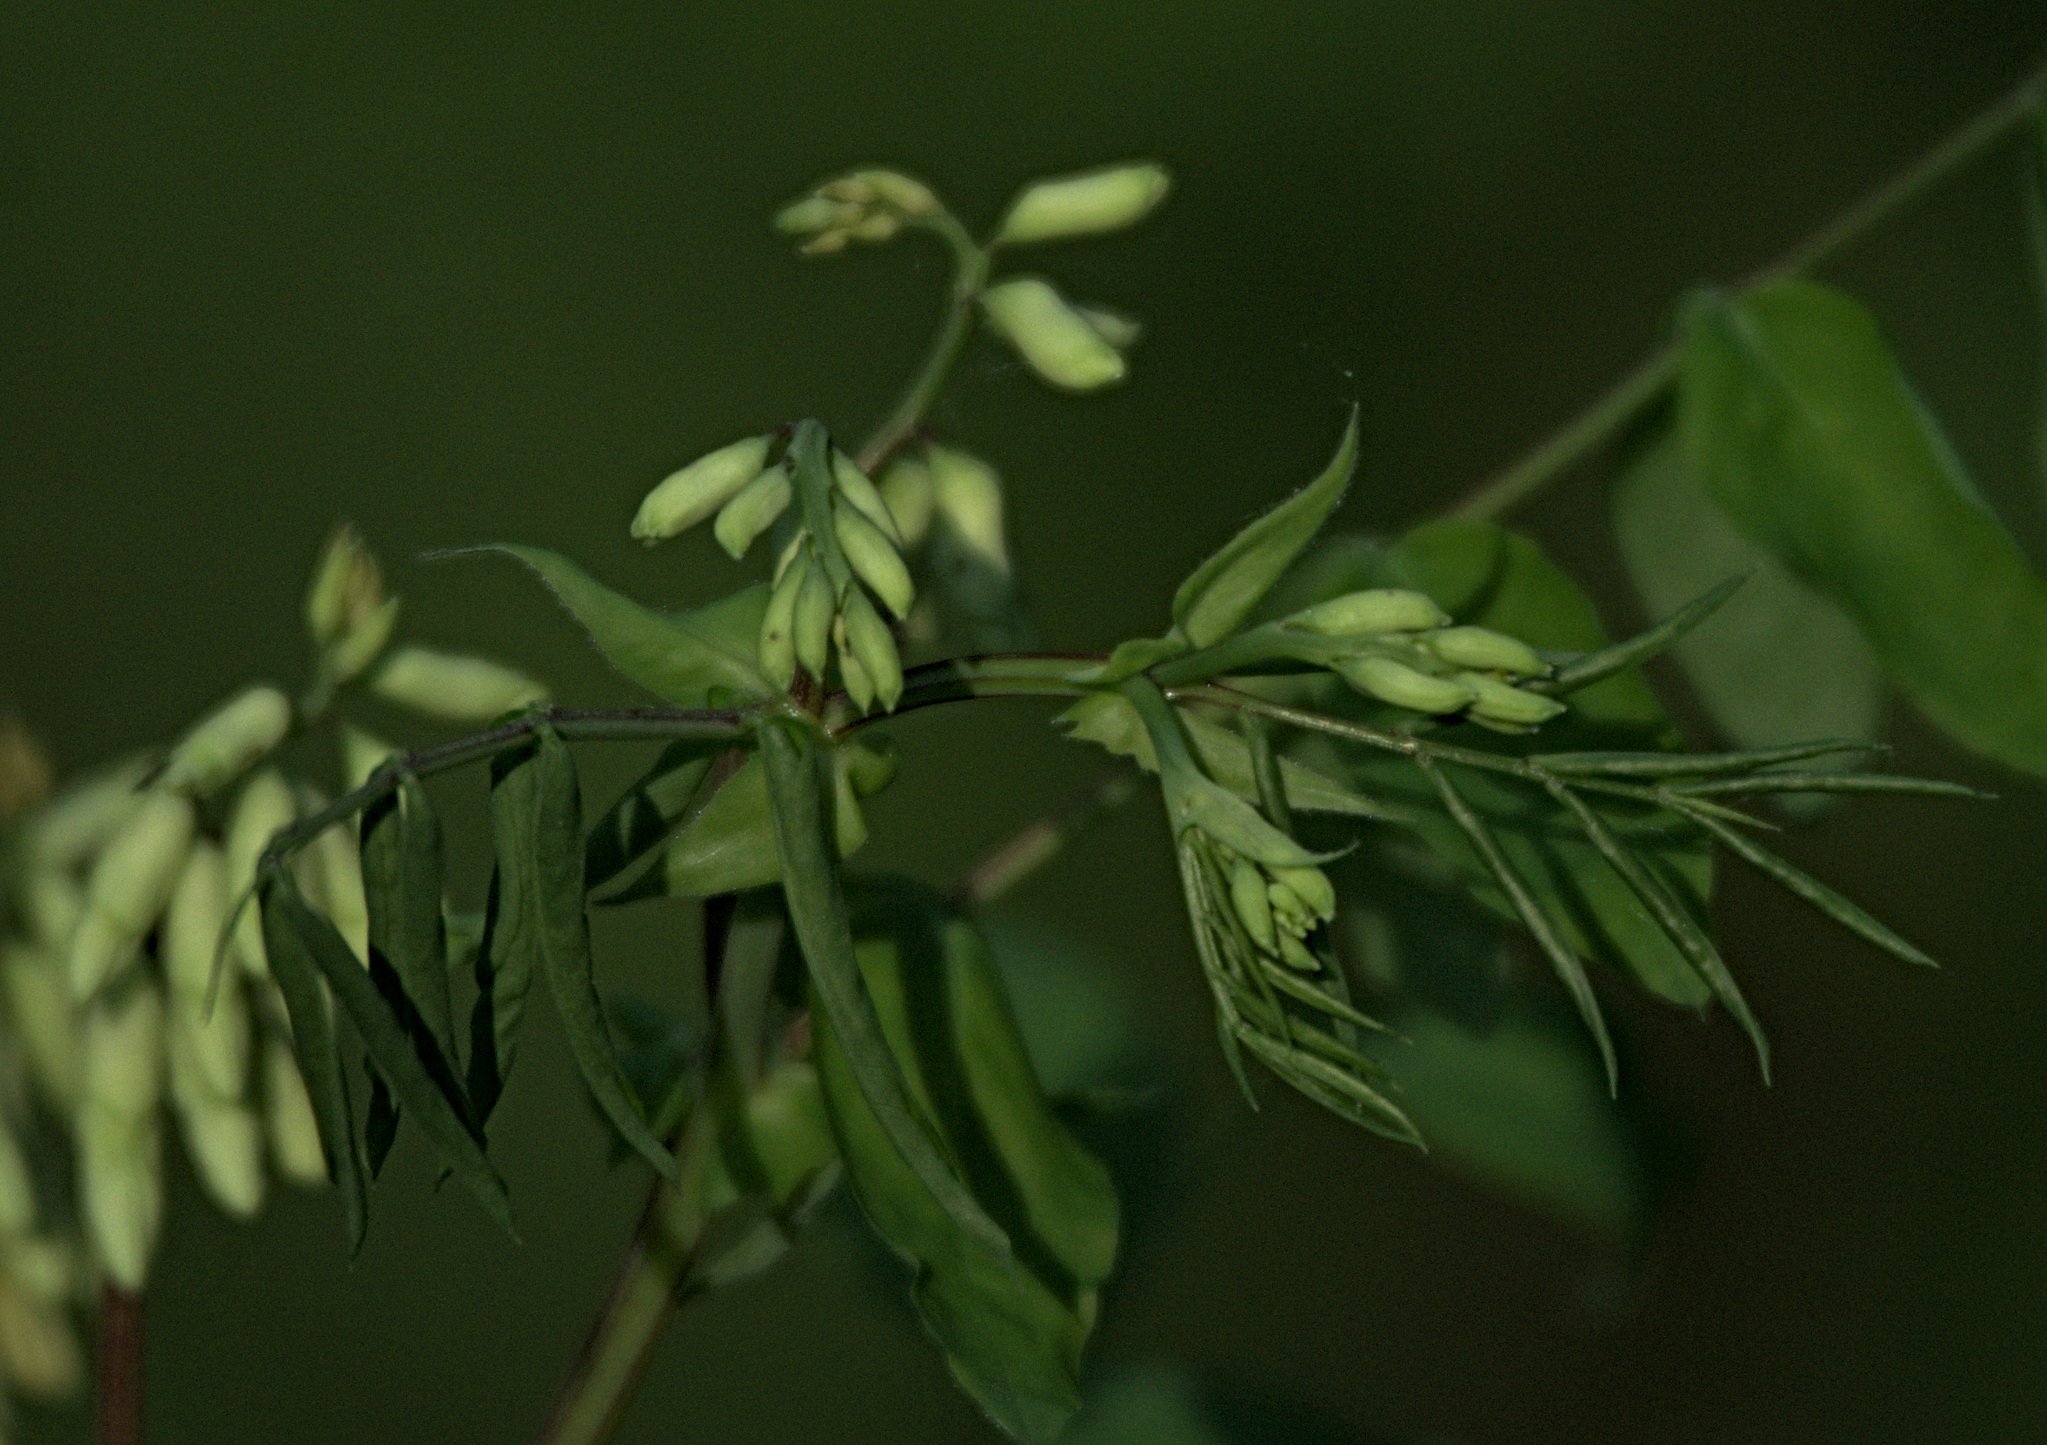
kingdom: Plantae
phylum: Tracheophyta
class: Magnoliopsida
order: Fabales
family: Fabaceae
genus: Lathyrus
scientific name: Lathyrus gmelinii
